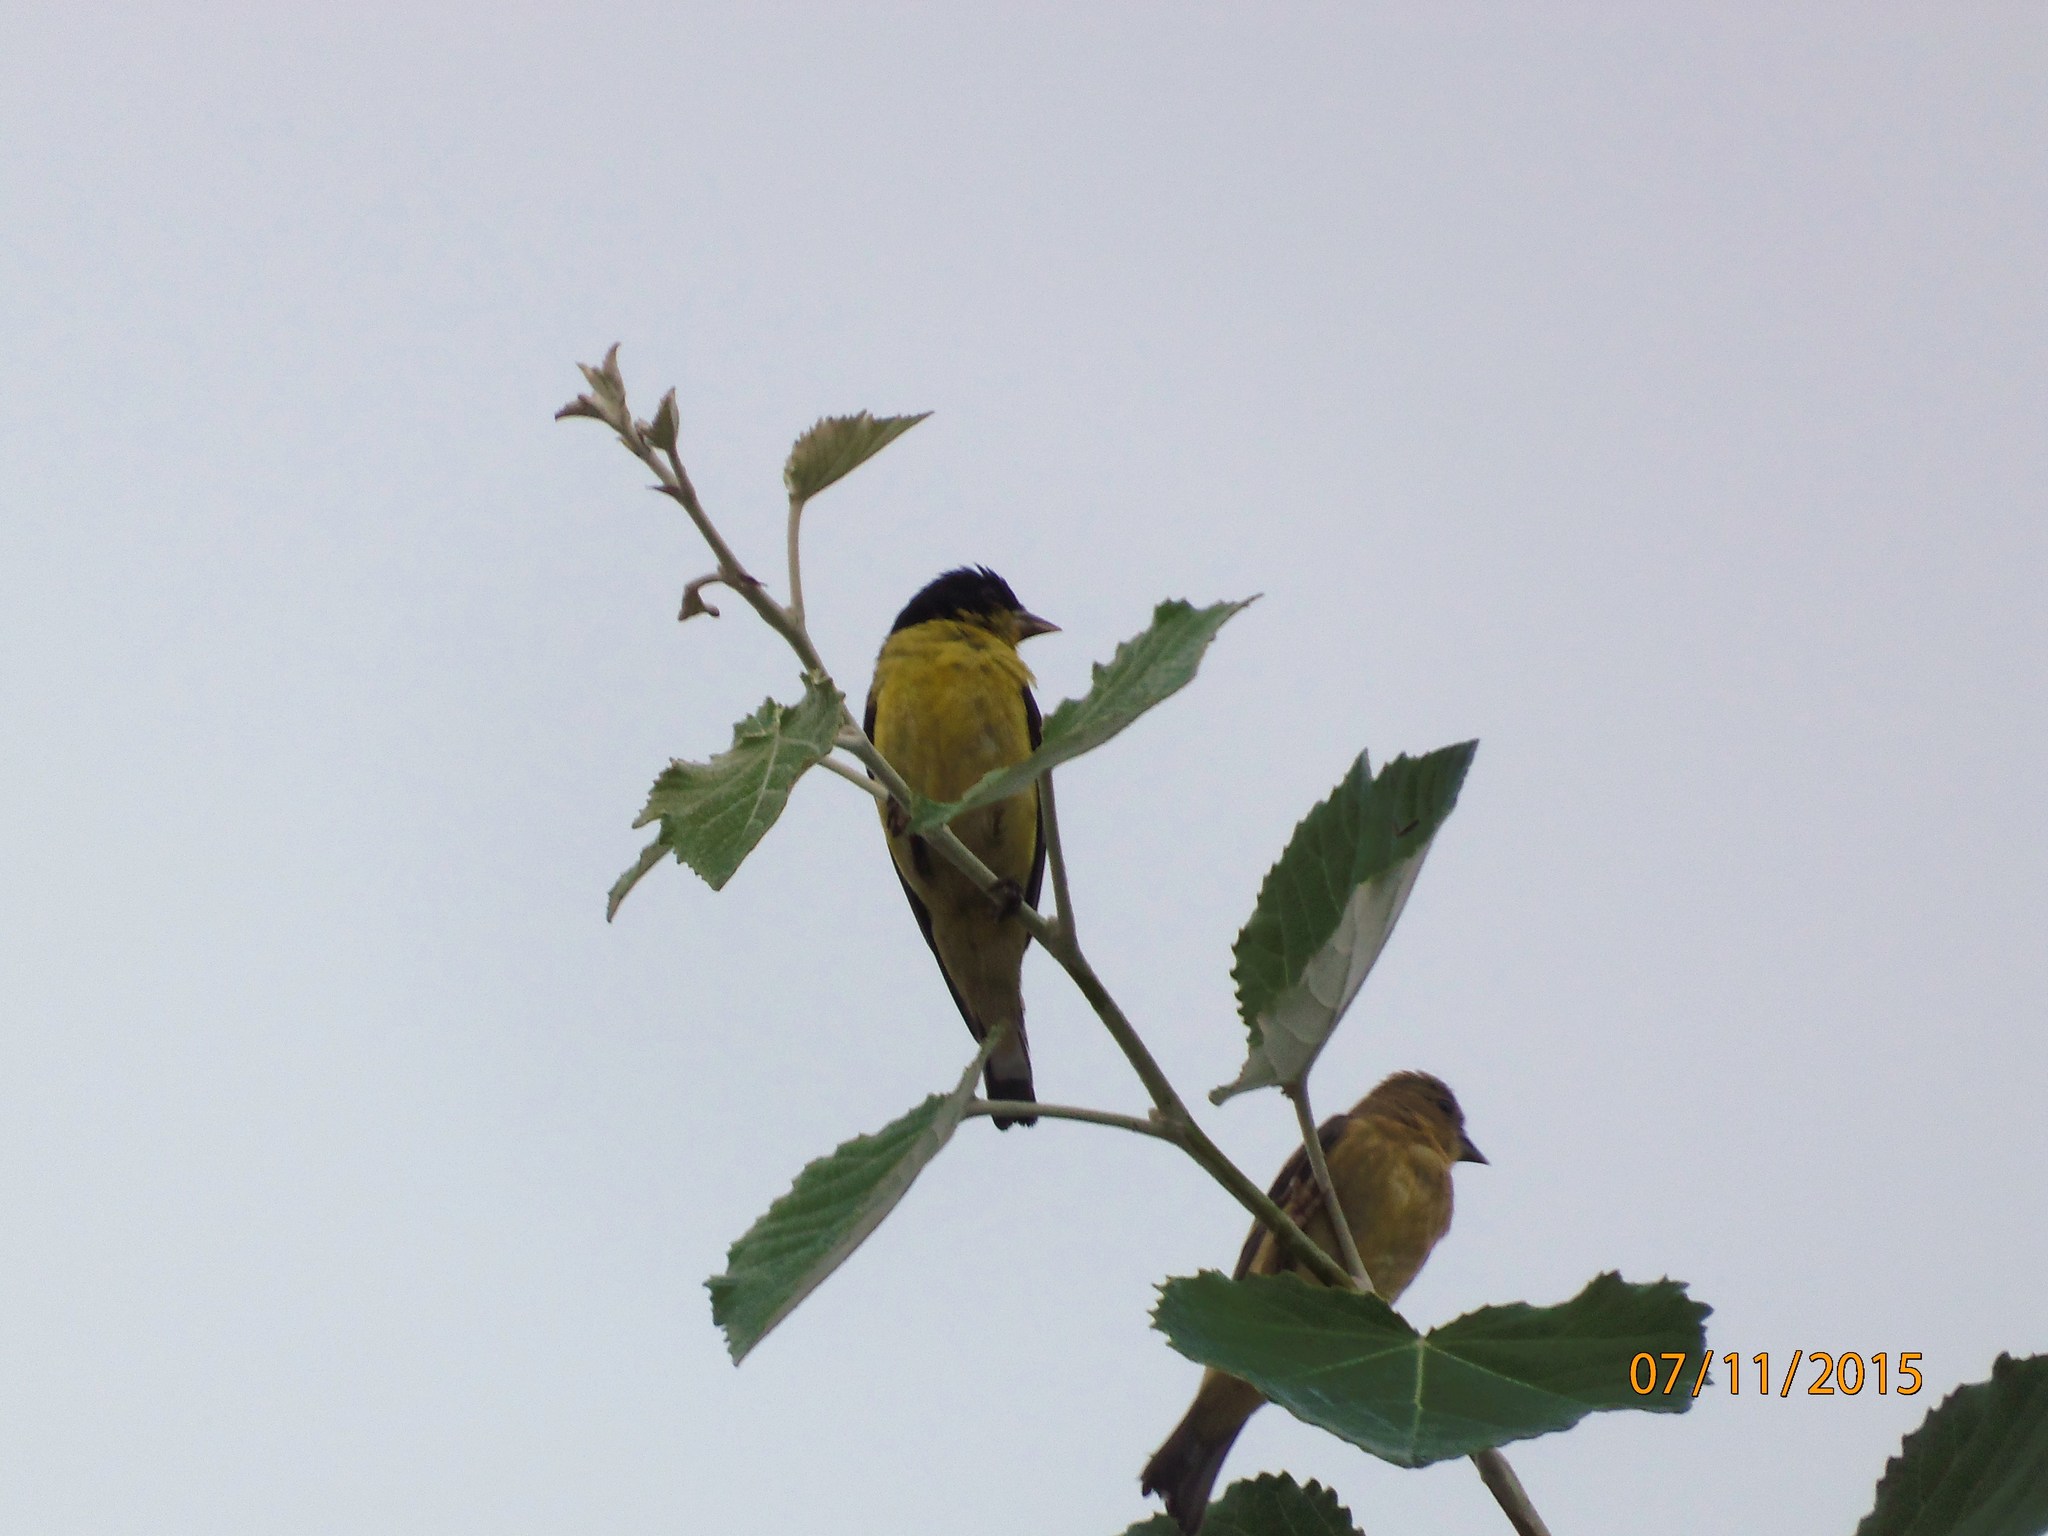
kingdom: Animalia
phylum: Chordata
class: Aves
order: Passeriformes
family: Fringillidae
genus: Spinus
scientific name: Spinus psaltria
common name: Lesser goldfinch
